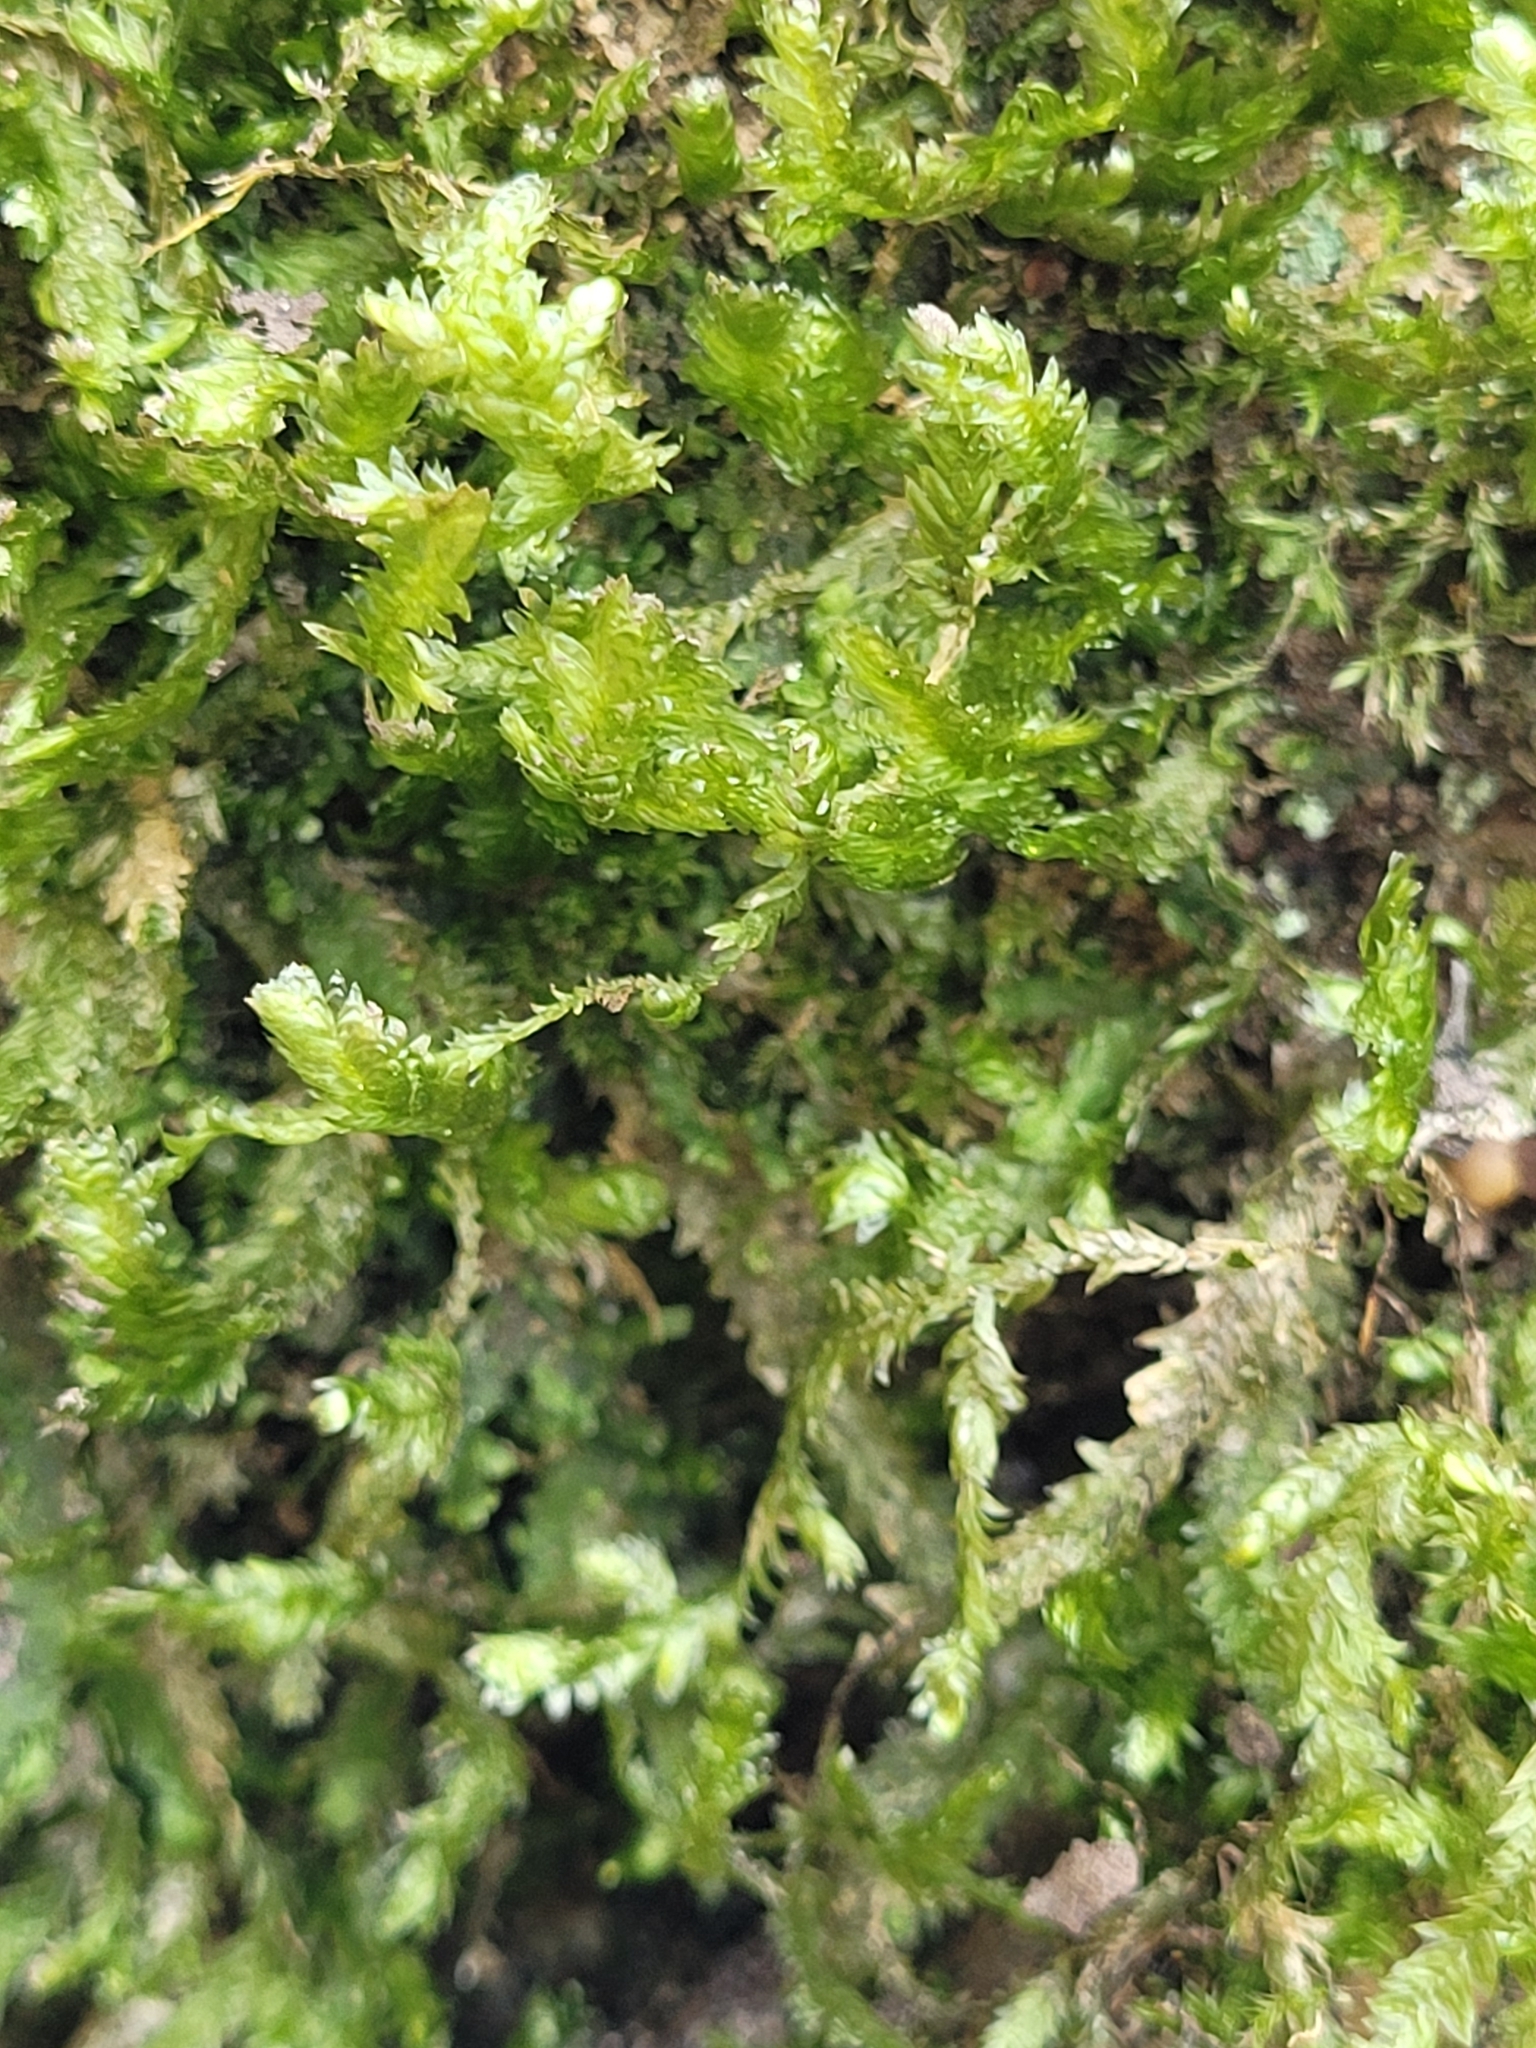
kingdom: Plantae
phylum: Bryophyta
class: Bryopsida
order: Hypnales
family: Neckeraceae
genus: Exsertotheca
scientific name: Exsertotheca crispa
